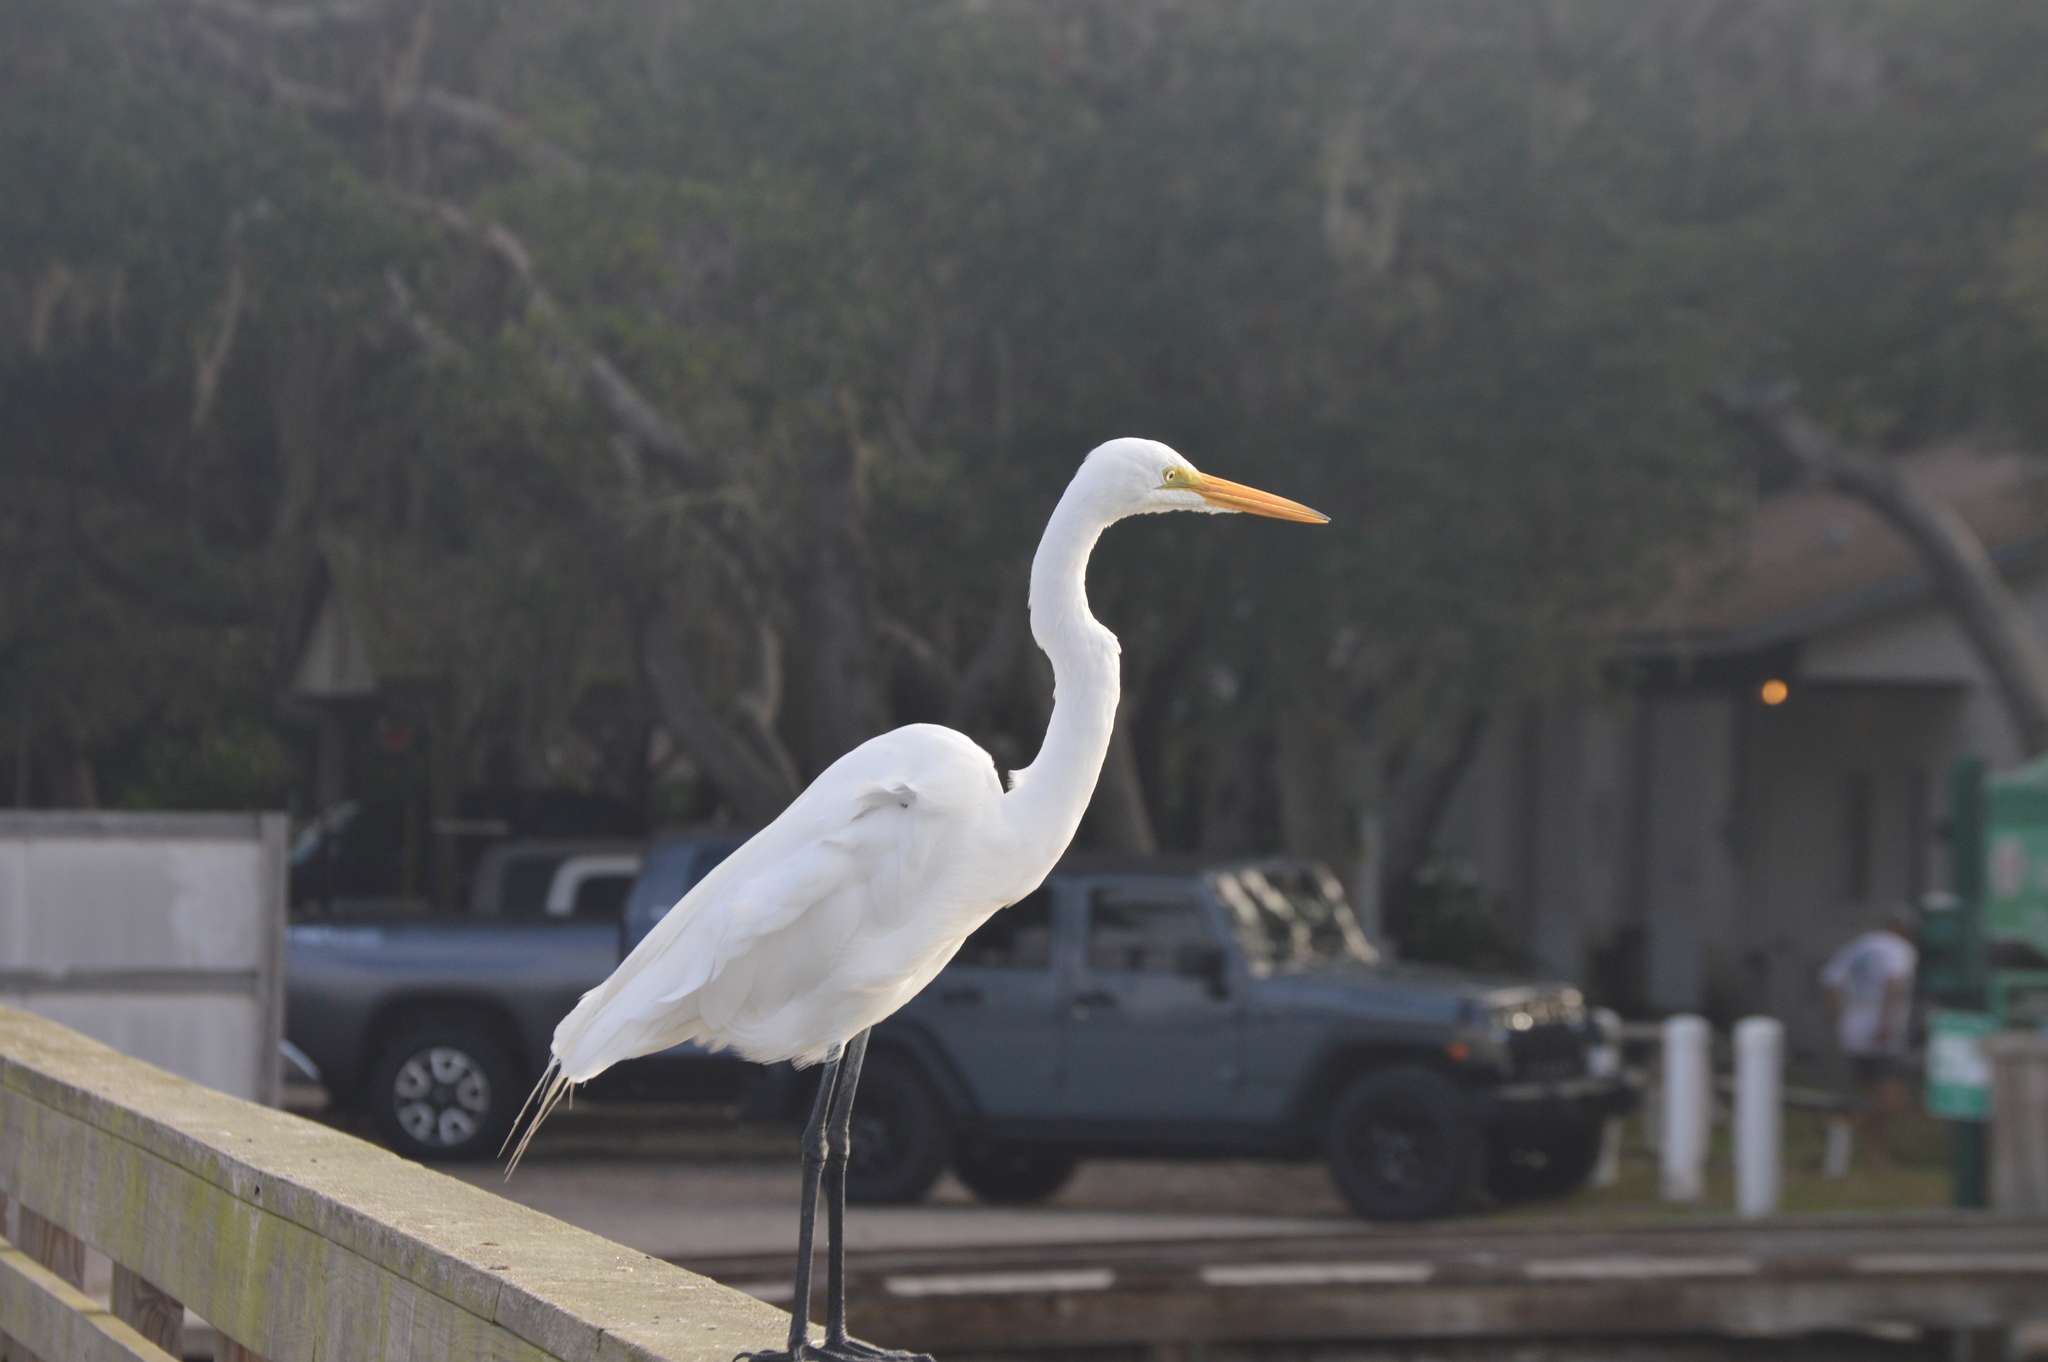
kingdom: Animalia
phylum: Chordata
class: Aves
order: Pelecaniformes
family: Ardeidae
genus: Ardea
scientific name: Ardea alba
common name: Great egret
